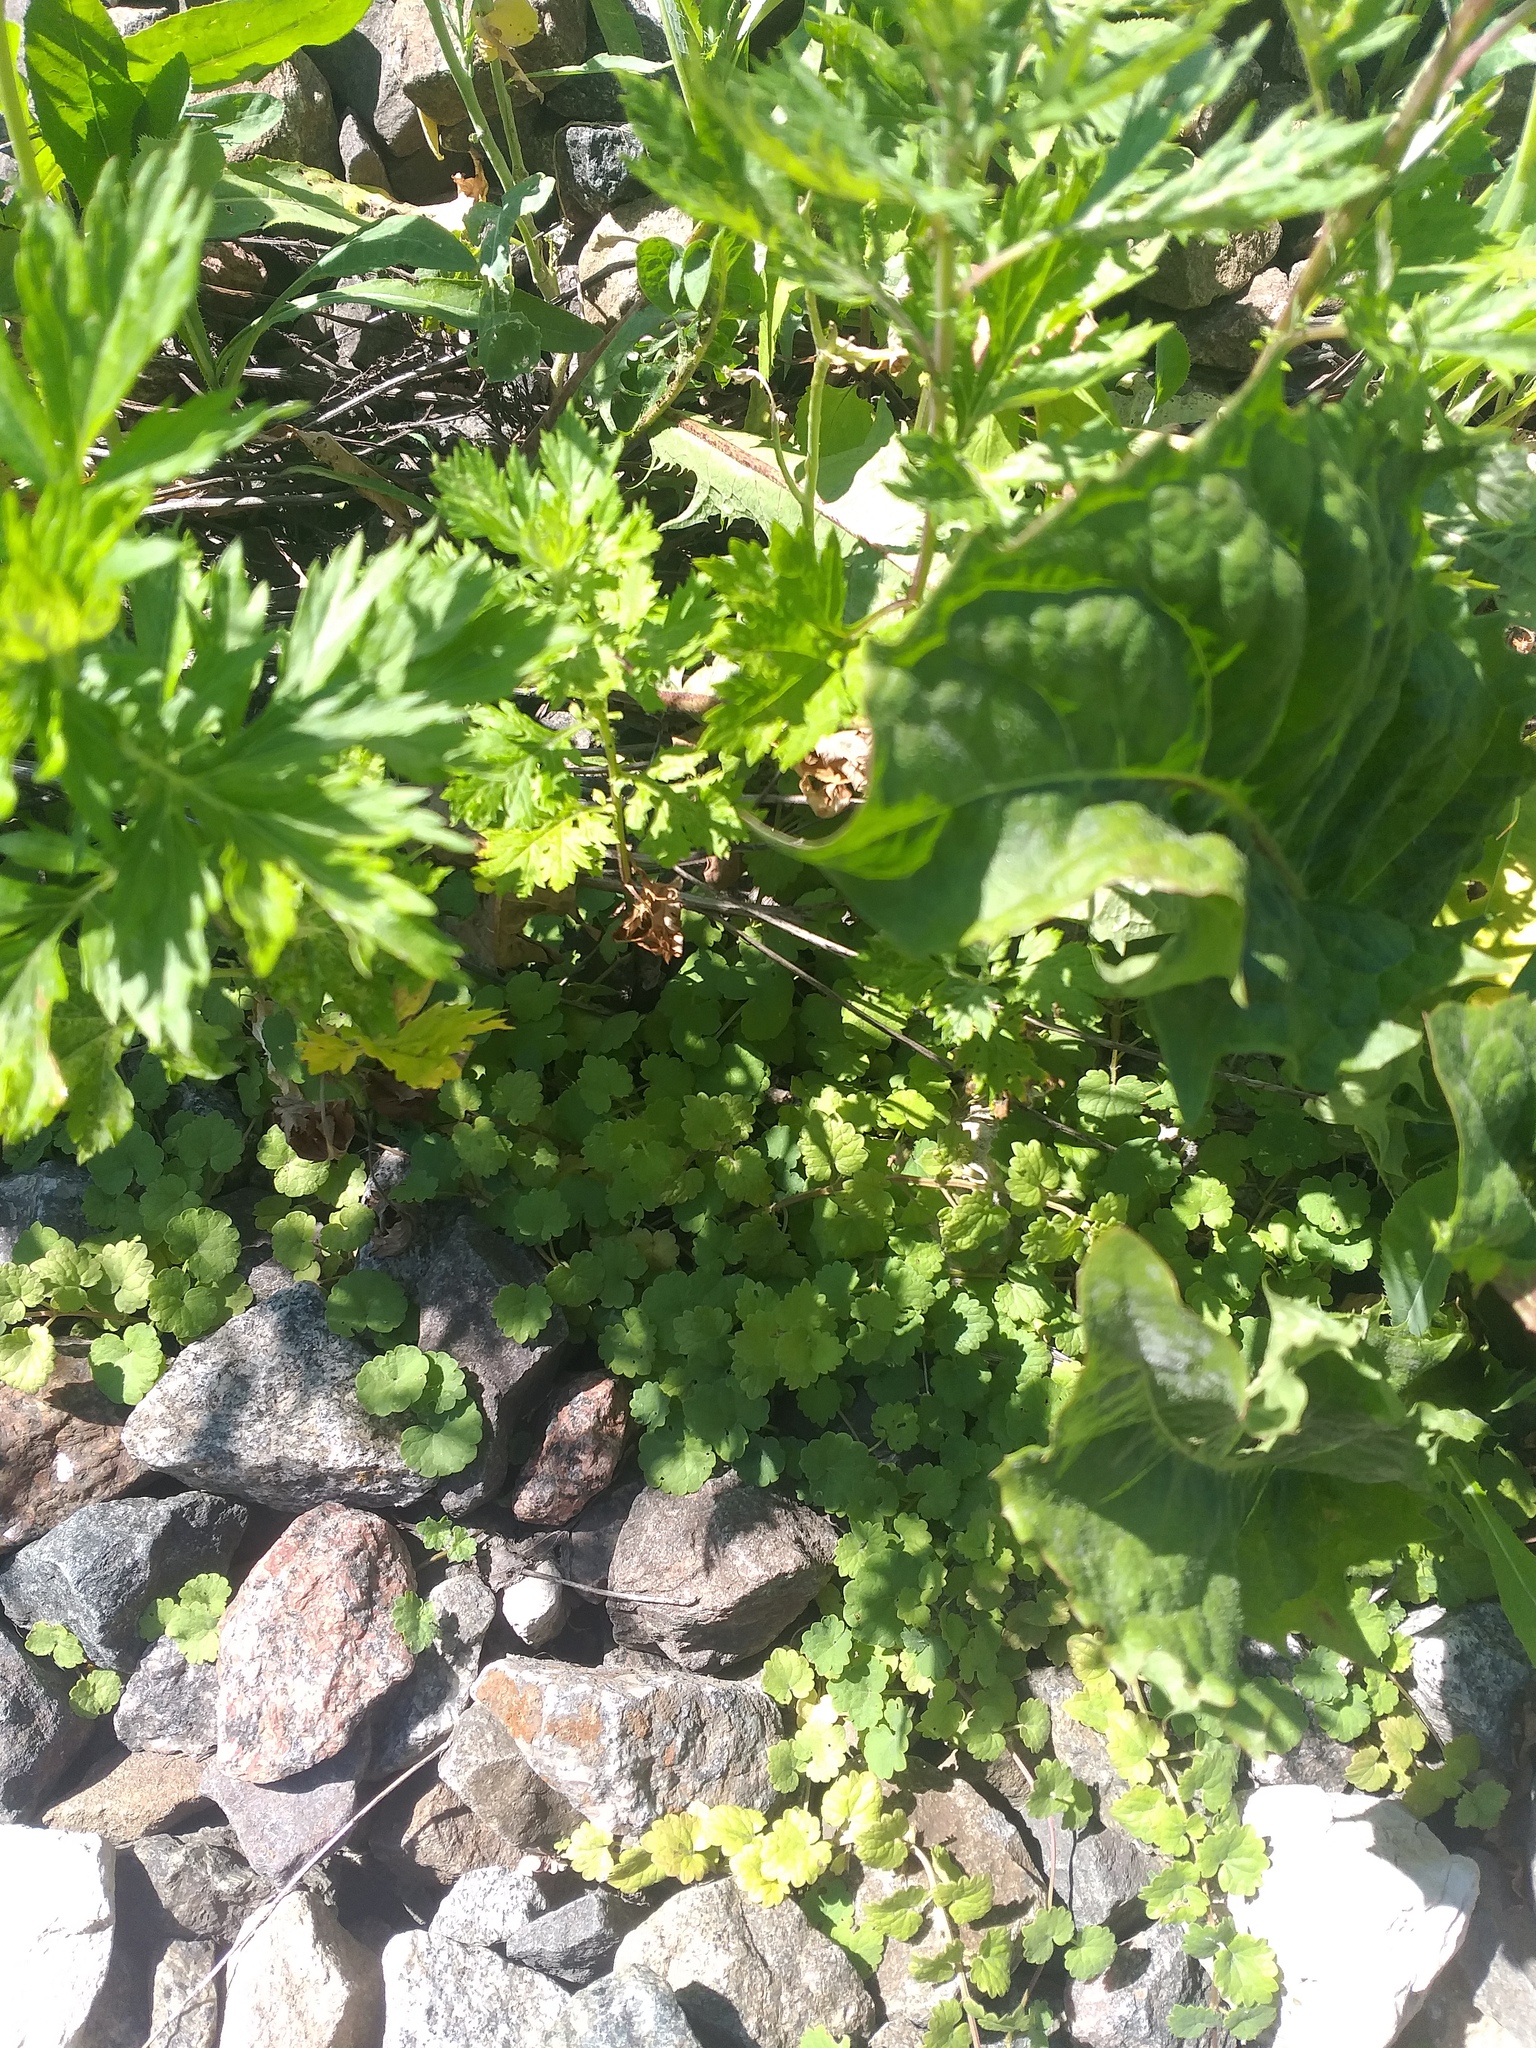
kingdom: Plantae
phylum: Tracheophyta
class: Magnoliopsida
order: Lamiales
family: Lamiaceae
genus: Glechoma
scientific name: Glechoma hederacea
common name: Ground ivy
